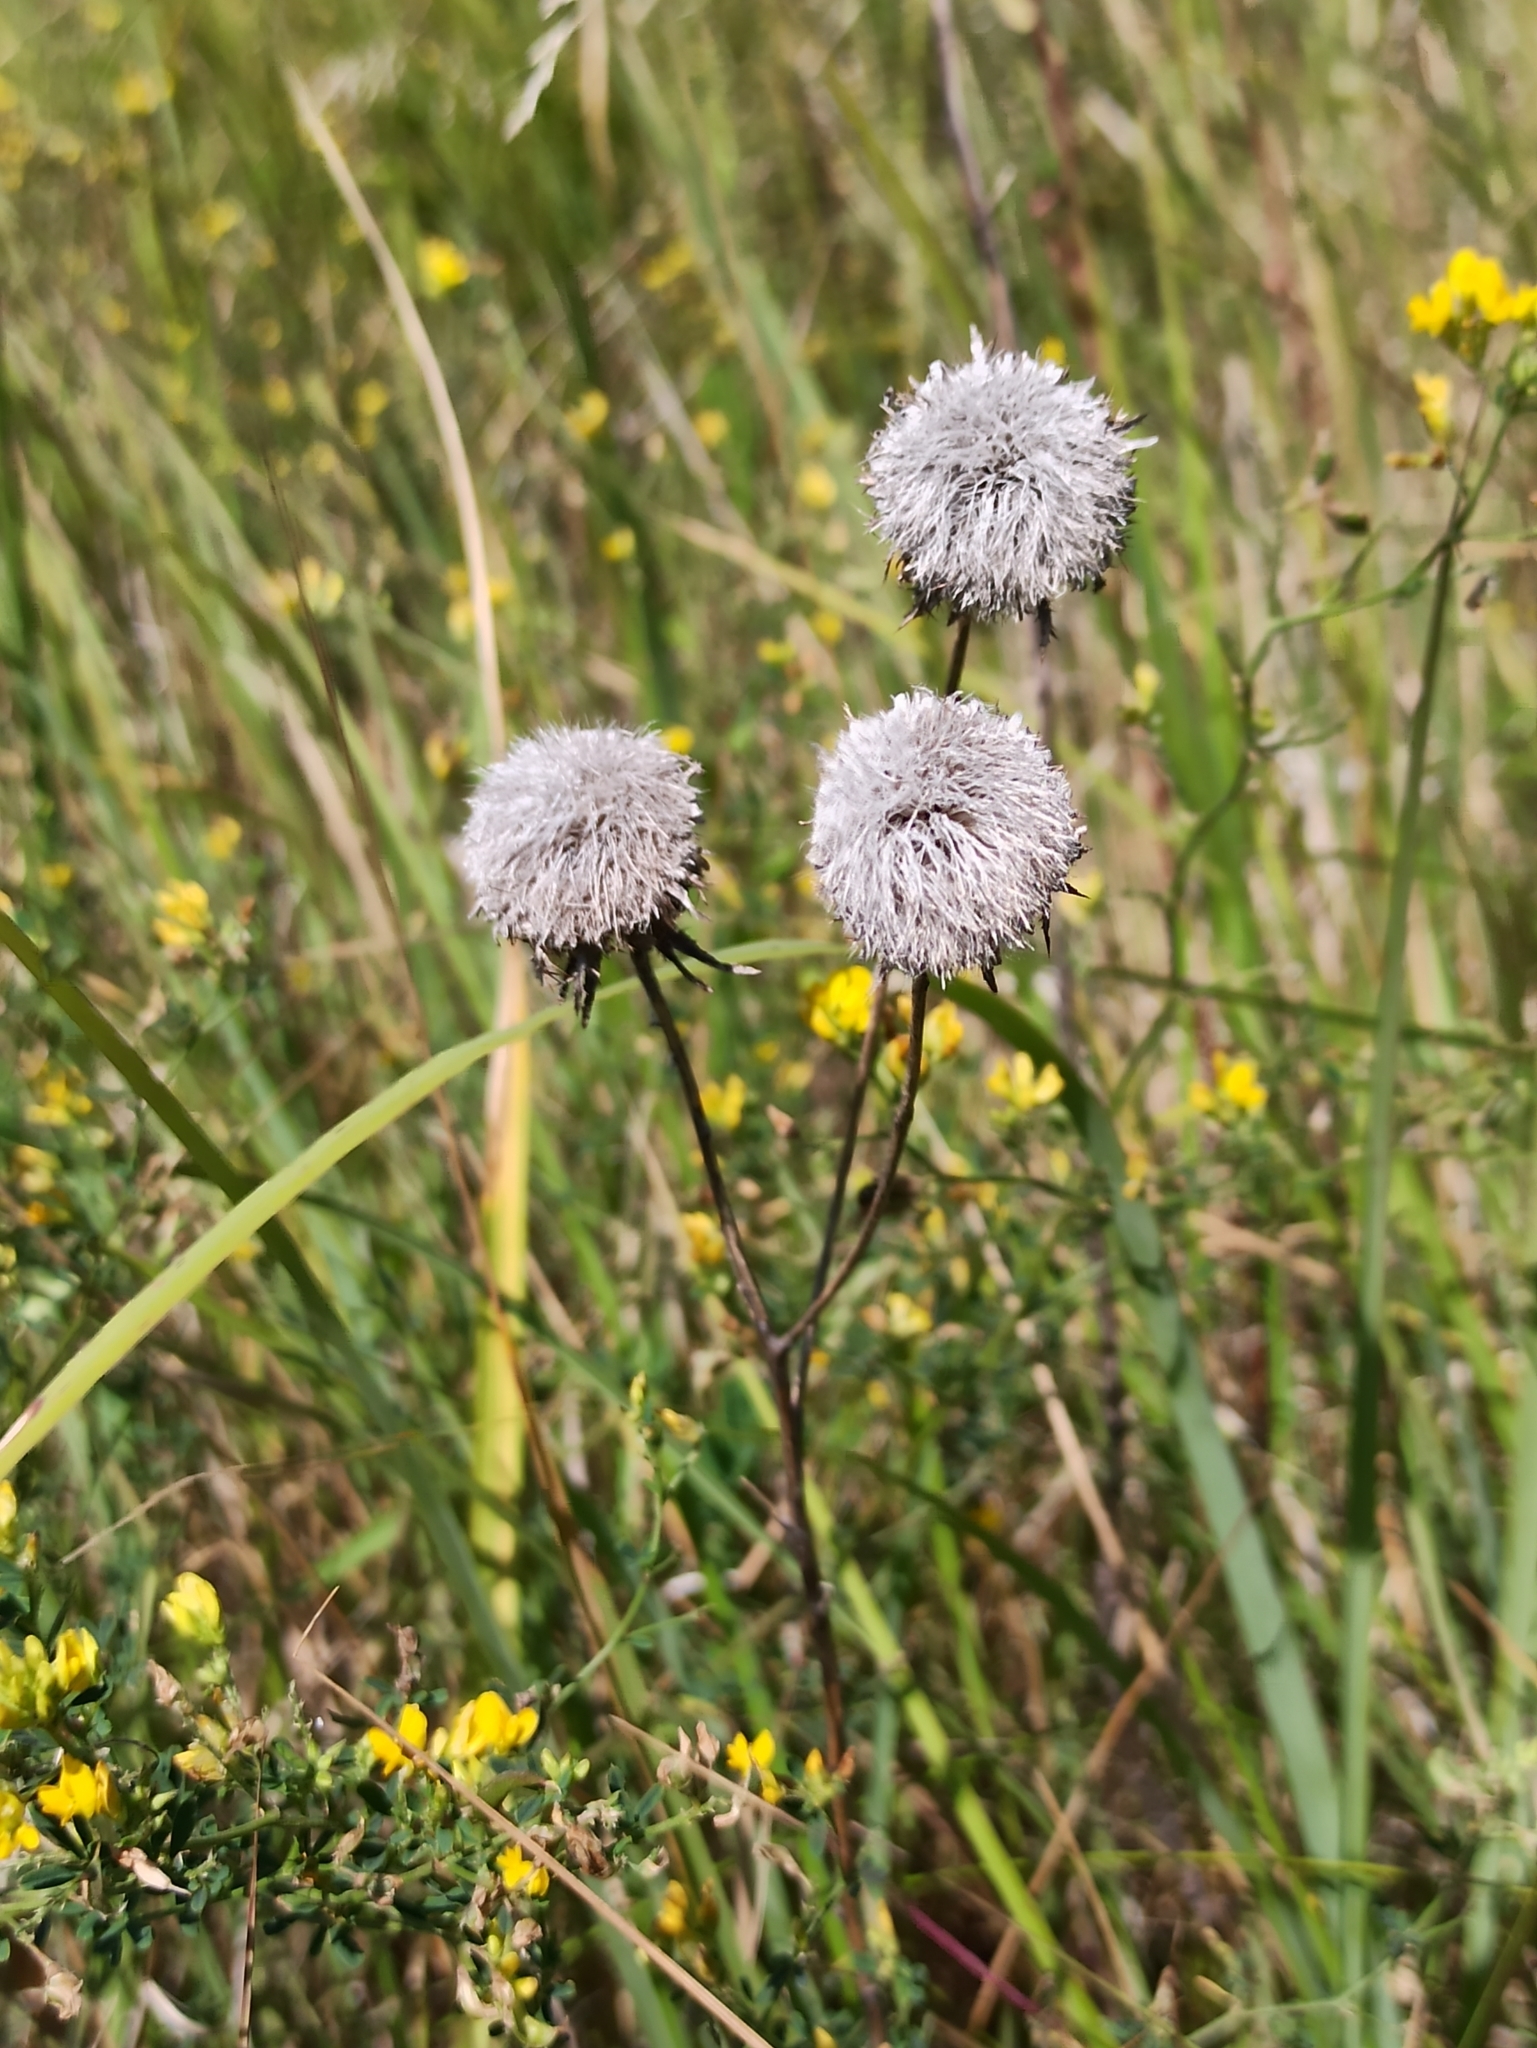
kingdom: Plantae
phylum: Tracheophyta
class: Magnoliopsida
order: Asterales
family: Asteraceae
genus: Carlina
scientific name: Carlina biebersteinii
